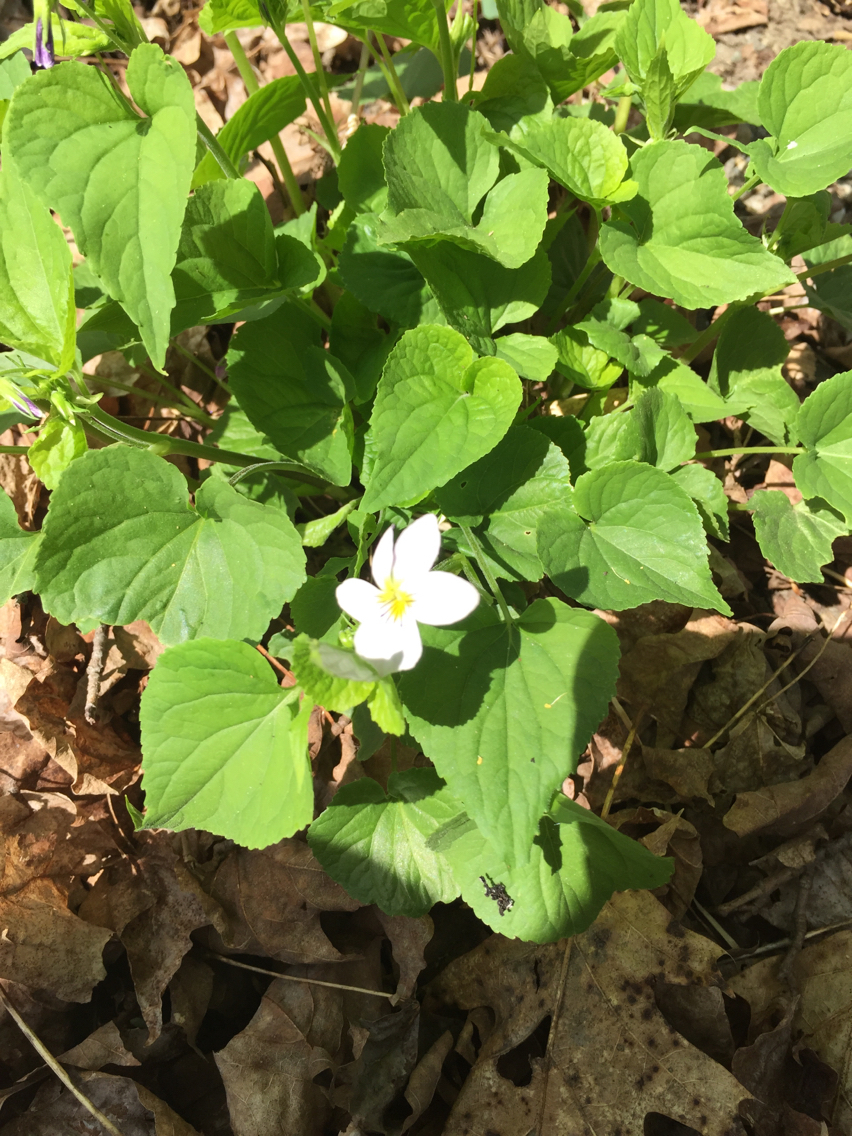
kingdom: Plantae
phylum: Tracheophyta
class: Magnoliopsida
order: Malpighiales
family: Violaceae
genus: Viola
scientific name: Viola canadensis
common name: Canada violet
